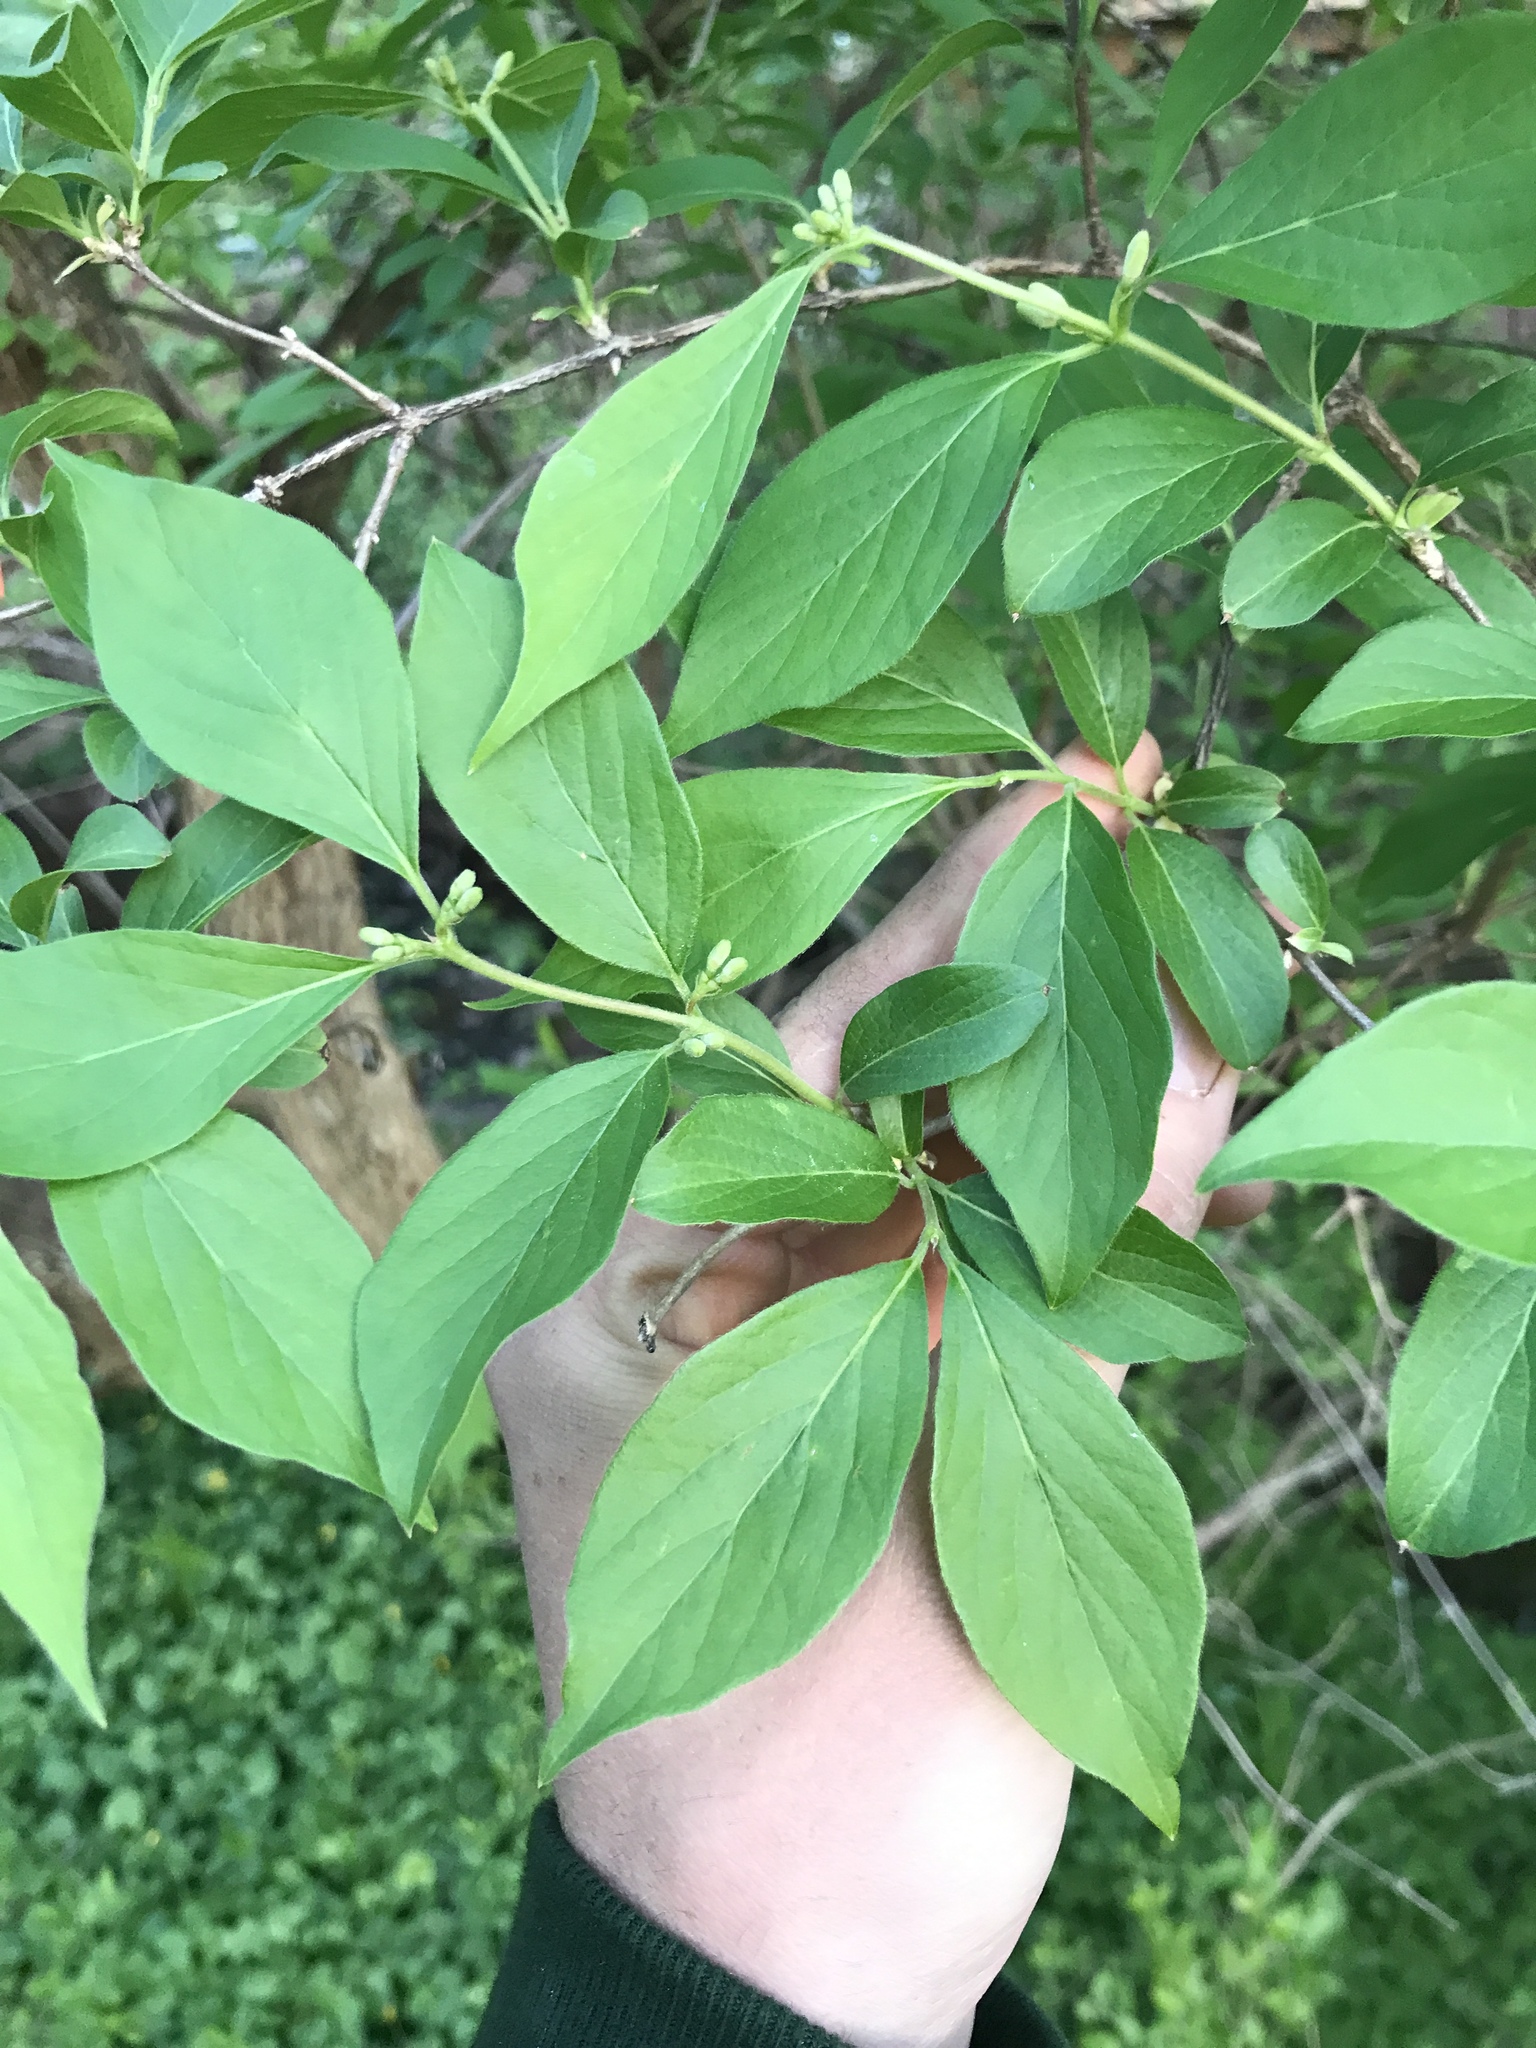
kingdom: Plantae
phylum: Tracheophyta
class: Magnoliopsida
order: Dipsacales
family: Caprifoliaceae
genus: Lonicera
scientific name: Lonicera maackii
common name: Amur honeysuckle
